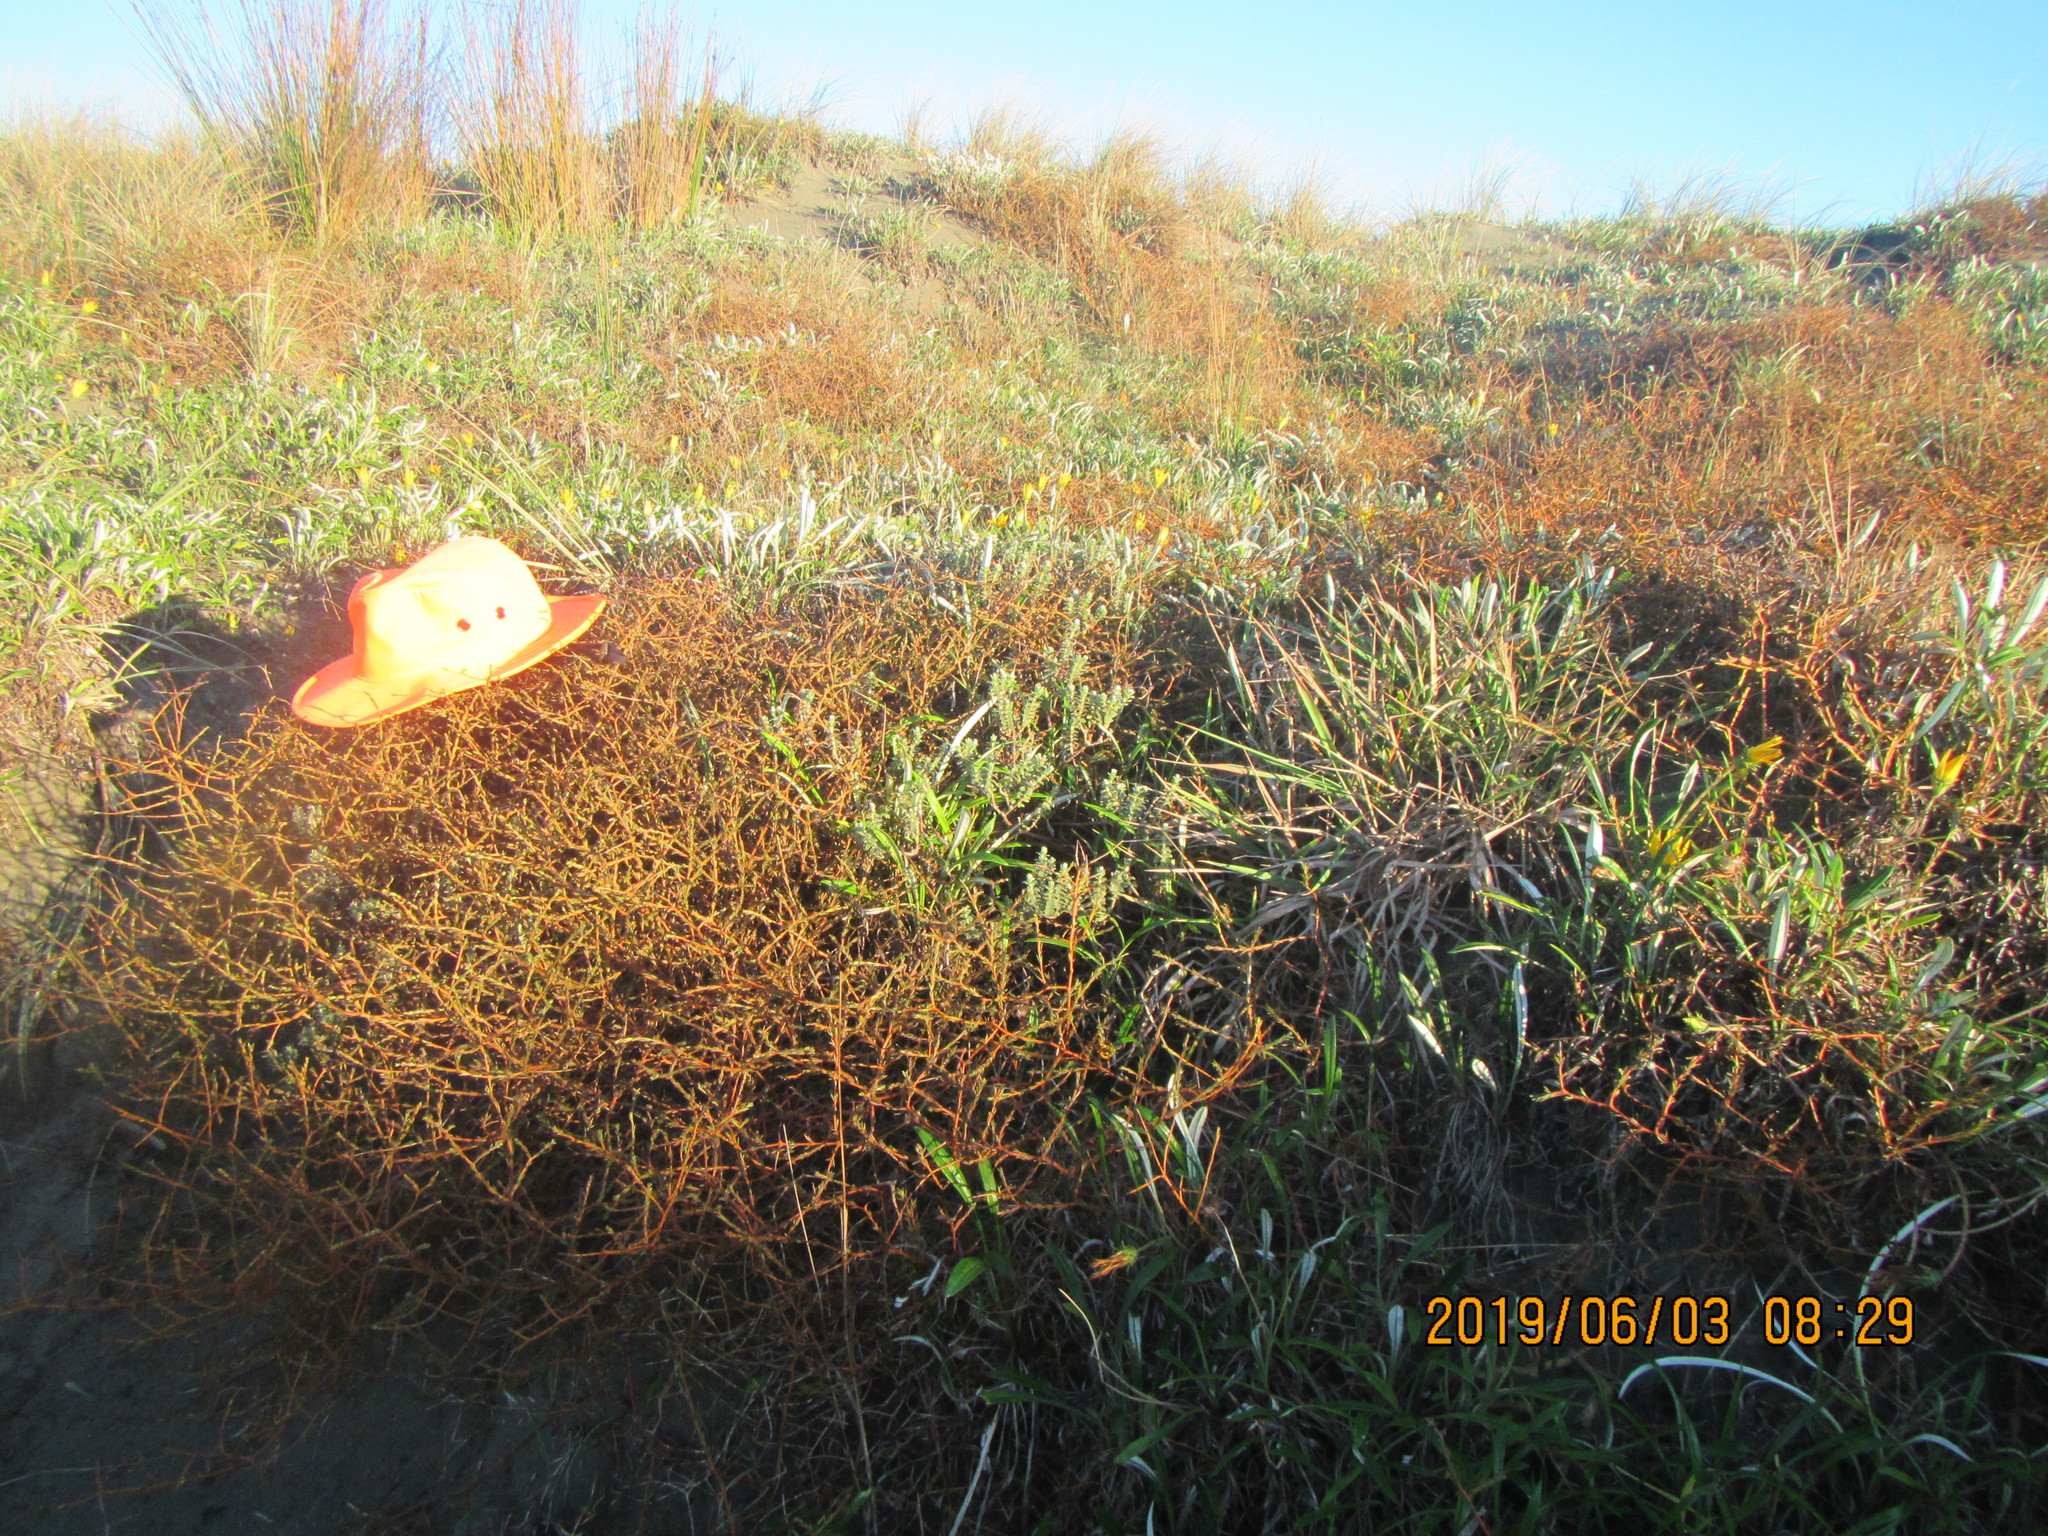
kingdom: Plantae
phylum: Tracheophyta
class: Magnoliopsida
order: Gentianales
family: Rubiaceae
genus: Coprosma
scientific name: Coprosma acerosa
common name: Sand coprosma
